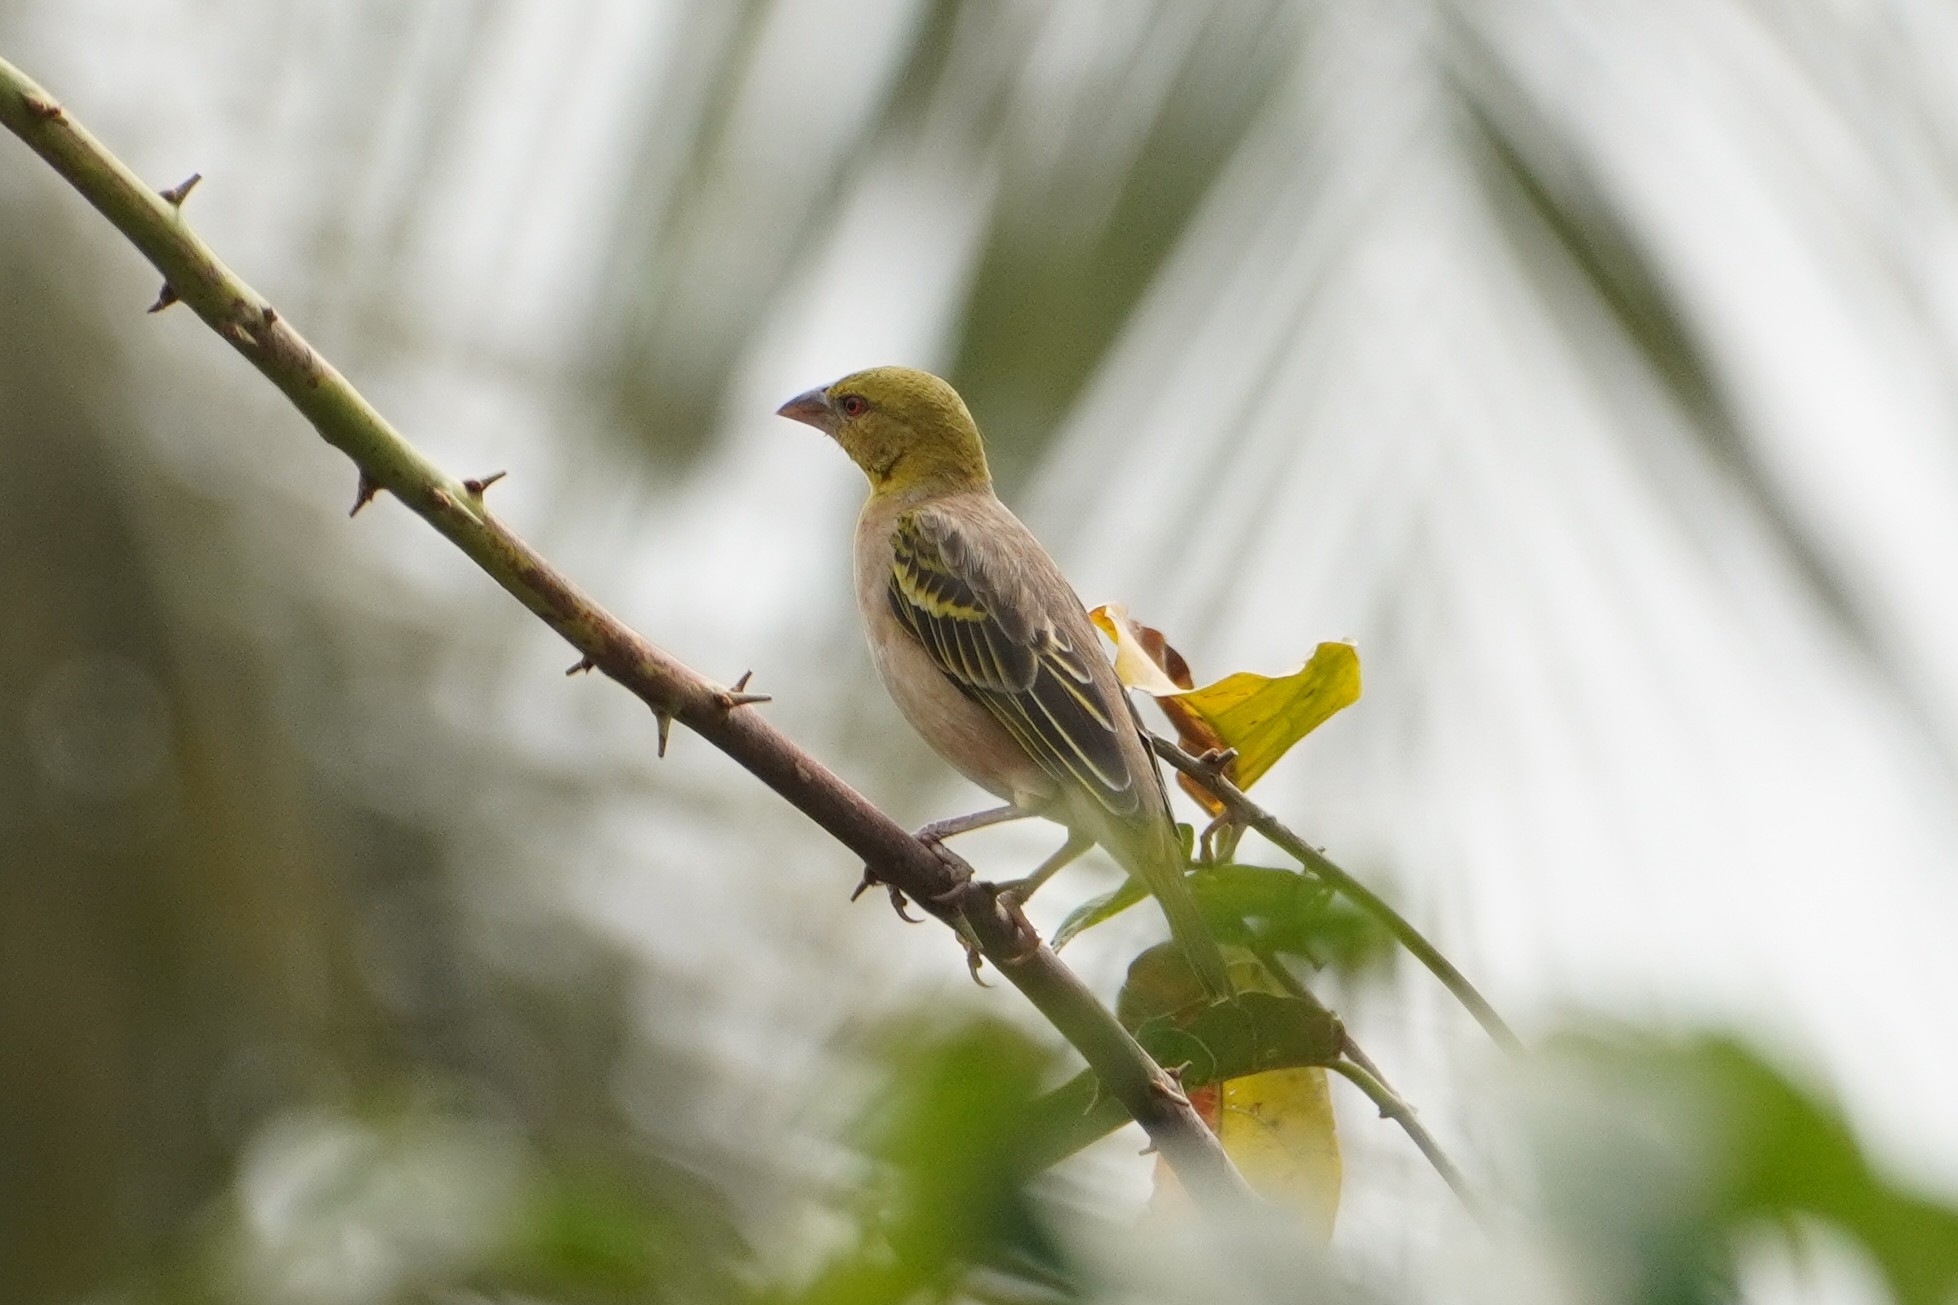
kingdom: Animalia
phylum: Chordata
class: Aves
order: Passeriformes
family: Ploceidae
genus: Ploceus
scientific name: Ploceus cucullatus
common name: Village weaver
